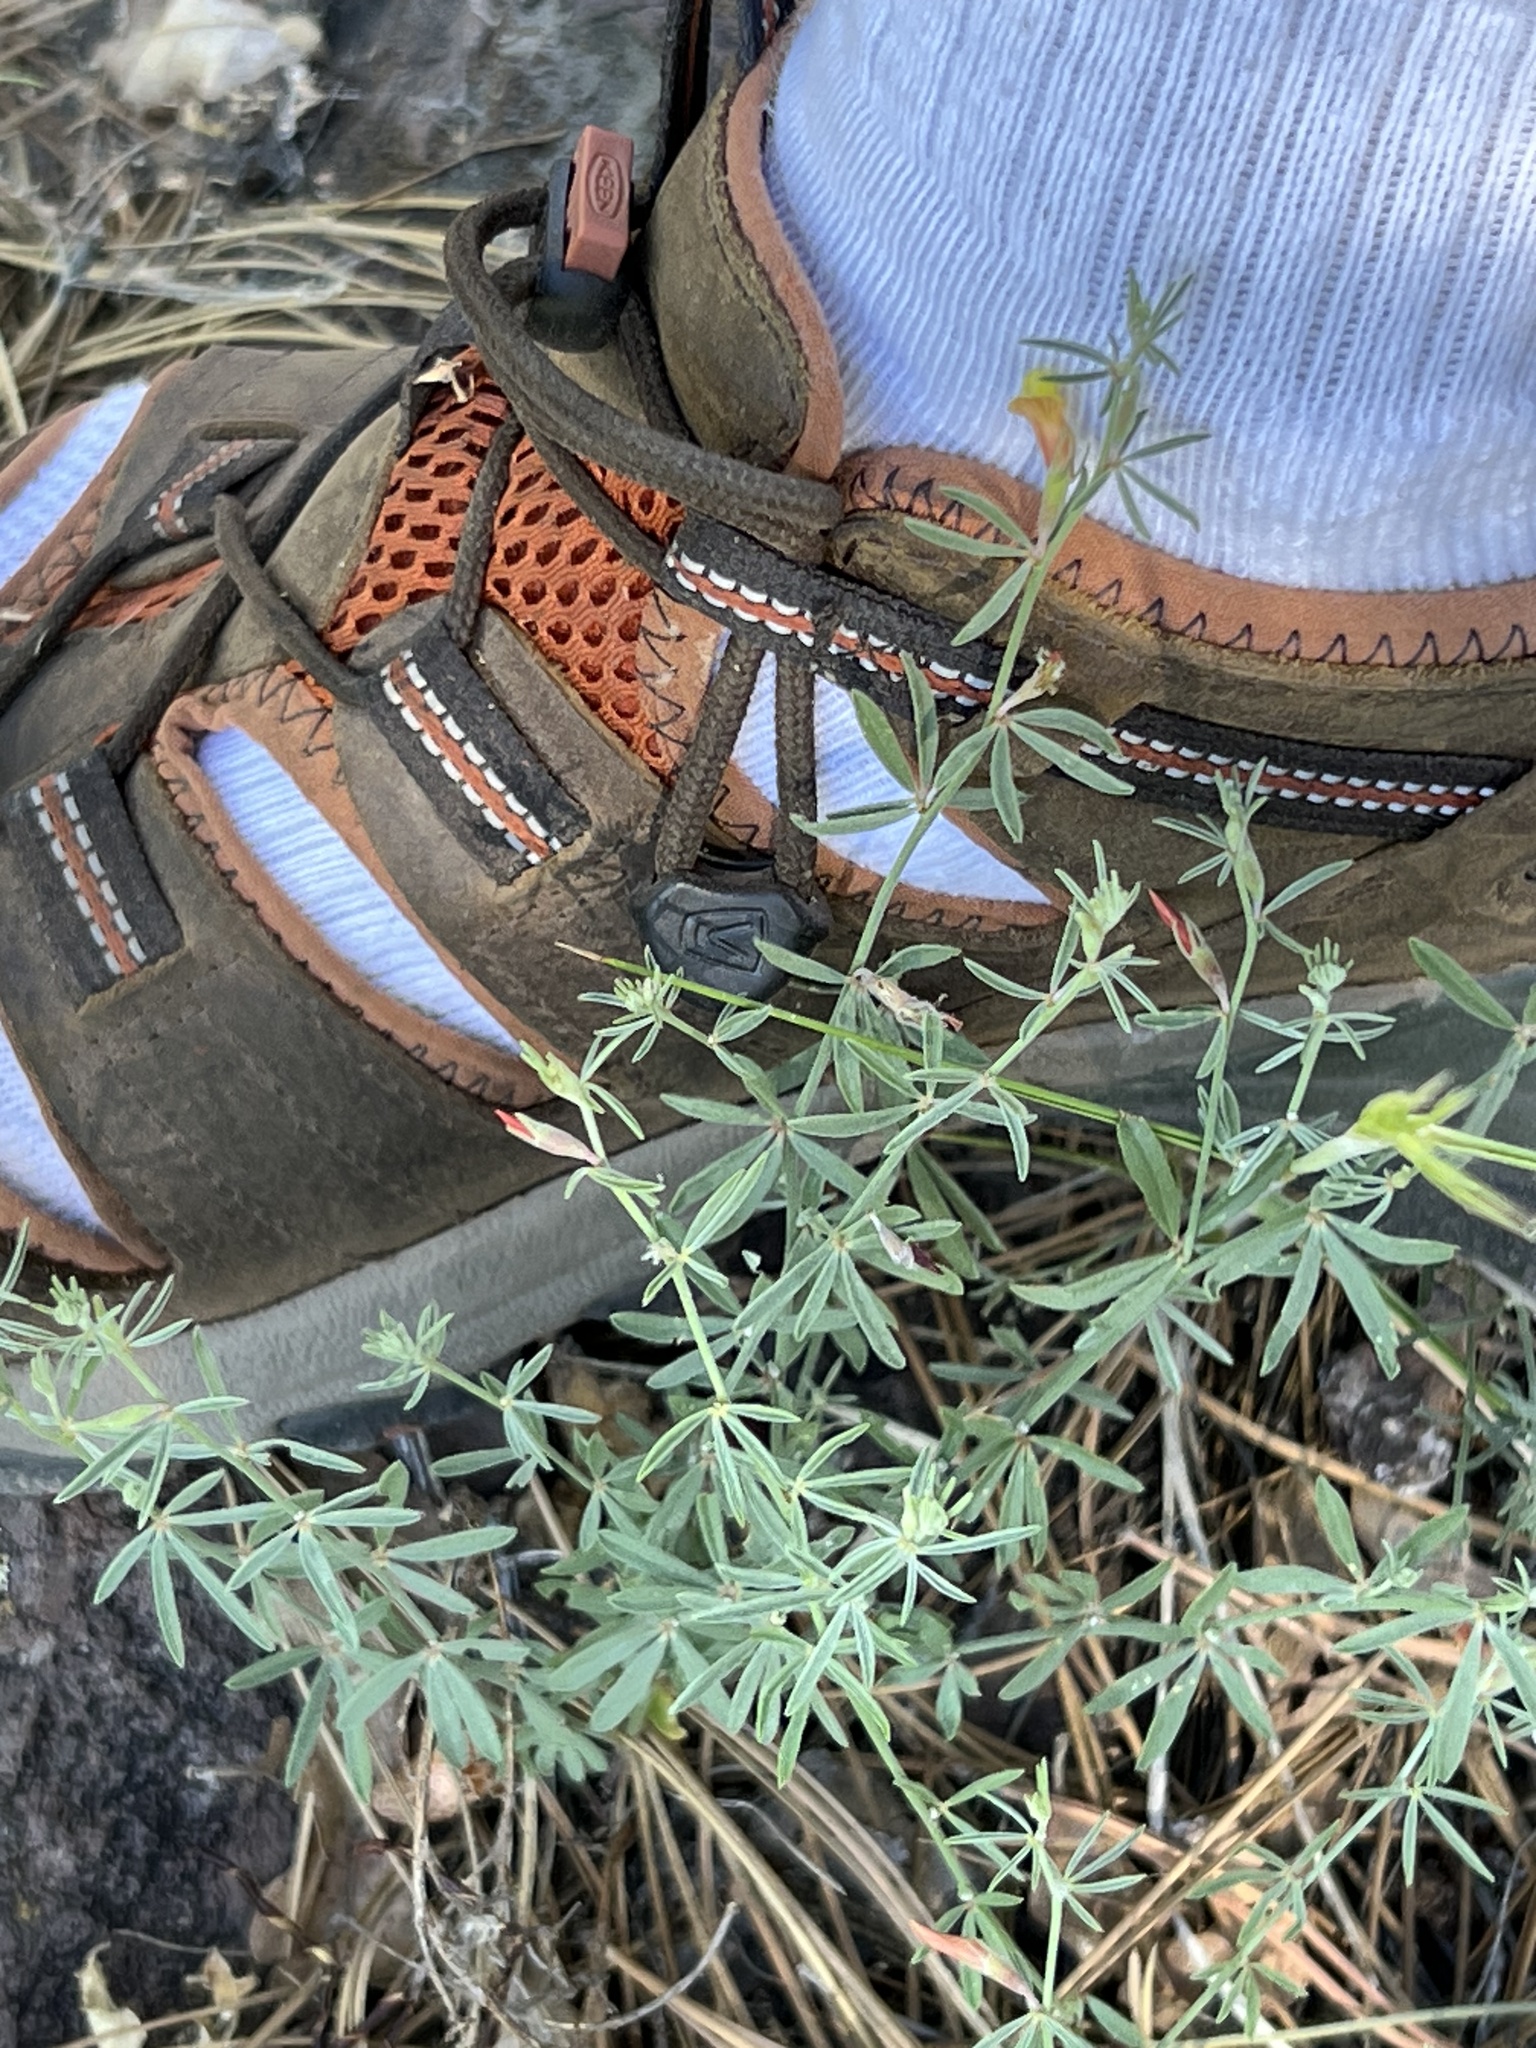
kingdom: Plantae
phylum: Tracheophyta
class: Magnoliopsida
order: Fabales
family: Fabaceae
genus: Acmispon
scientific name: Acmispon wrightii
